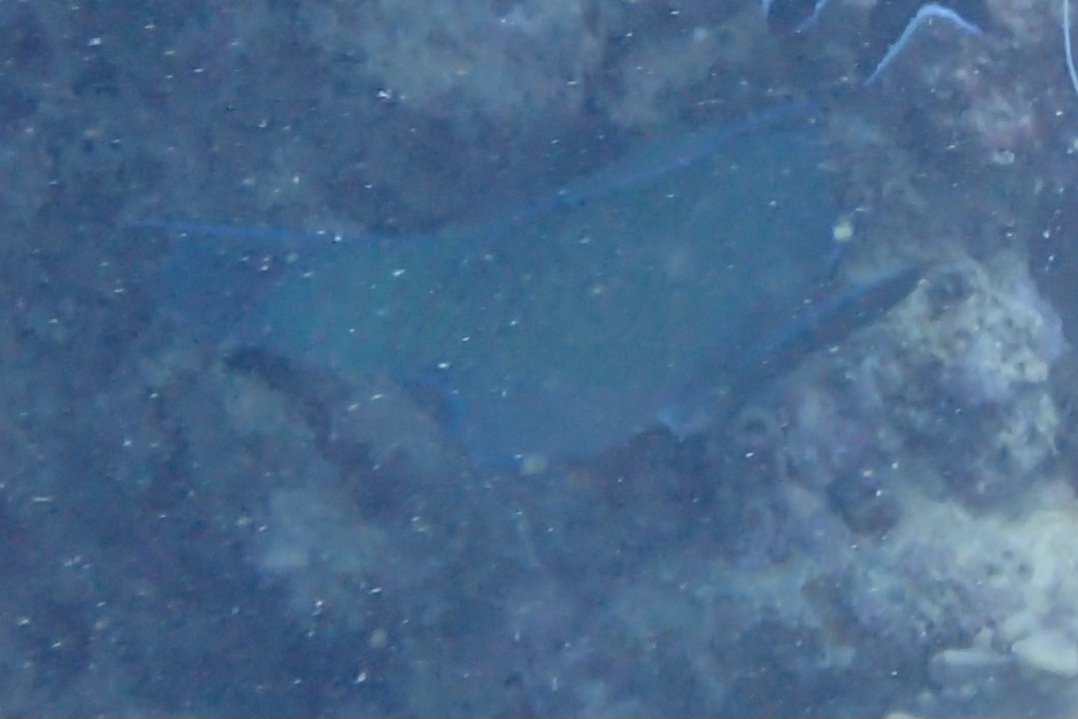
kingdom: Animalia
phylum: Chordata
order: Perciformes
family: Scaridae
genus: Chlorurus
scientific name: Chlorurus microrhinos
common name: Steephead parrotfish
